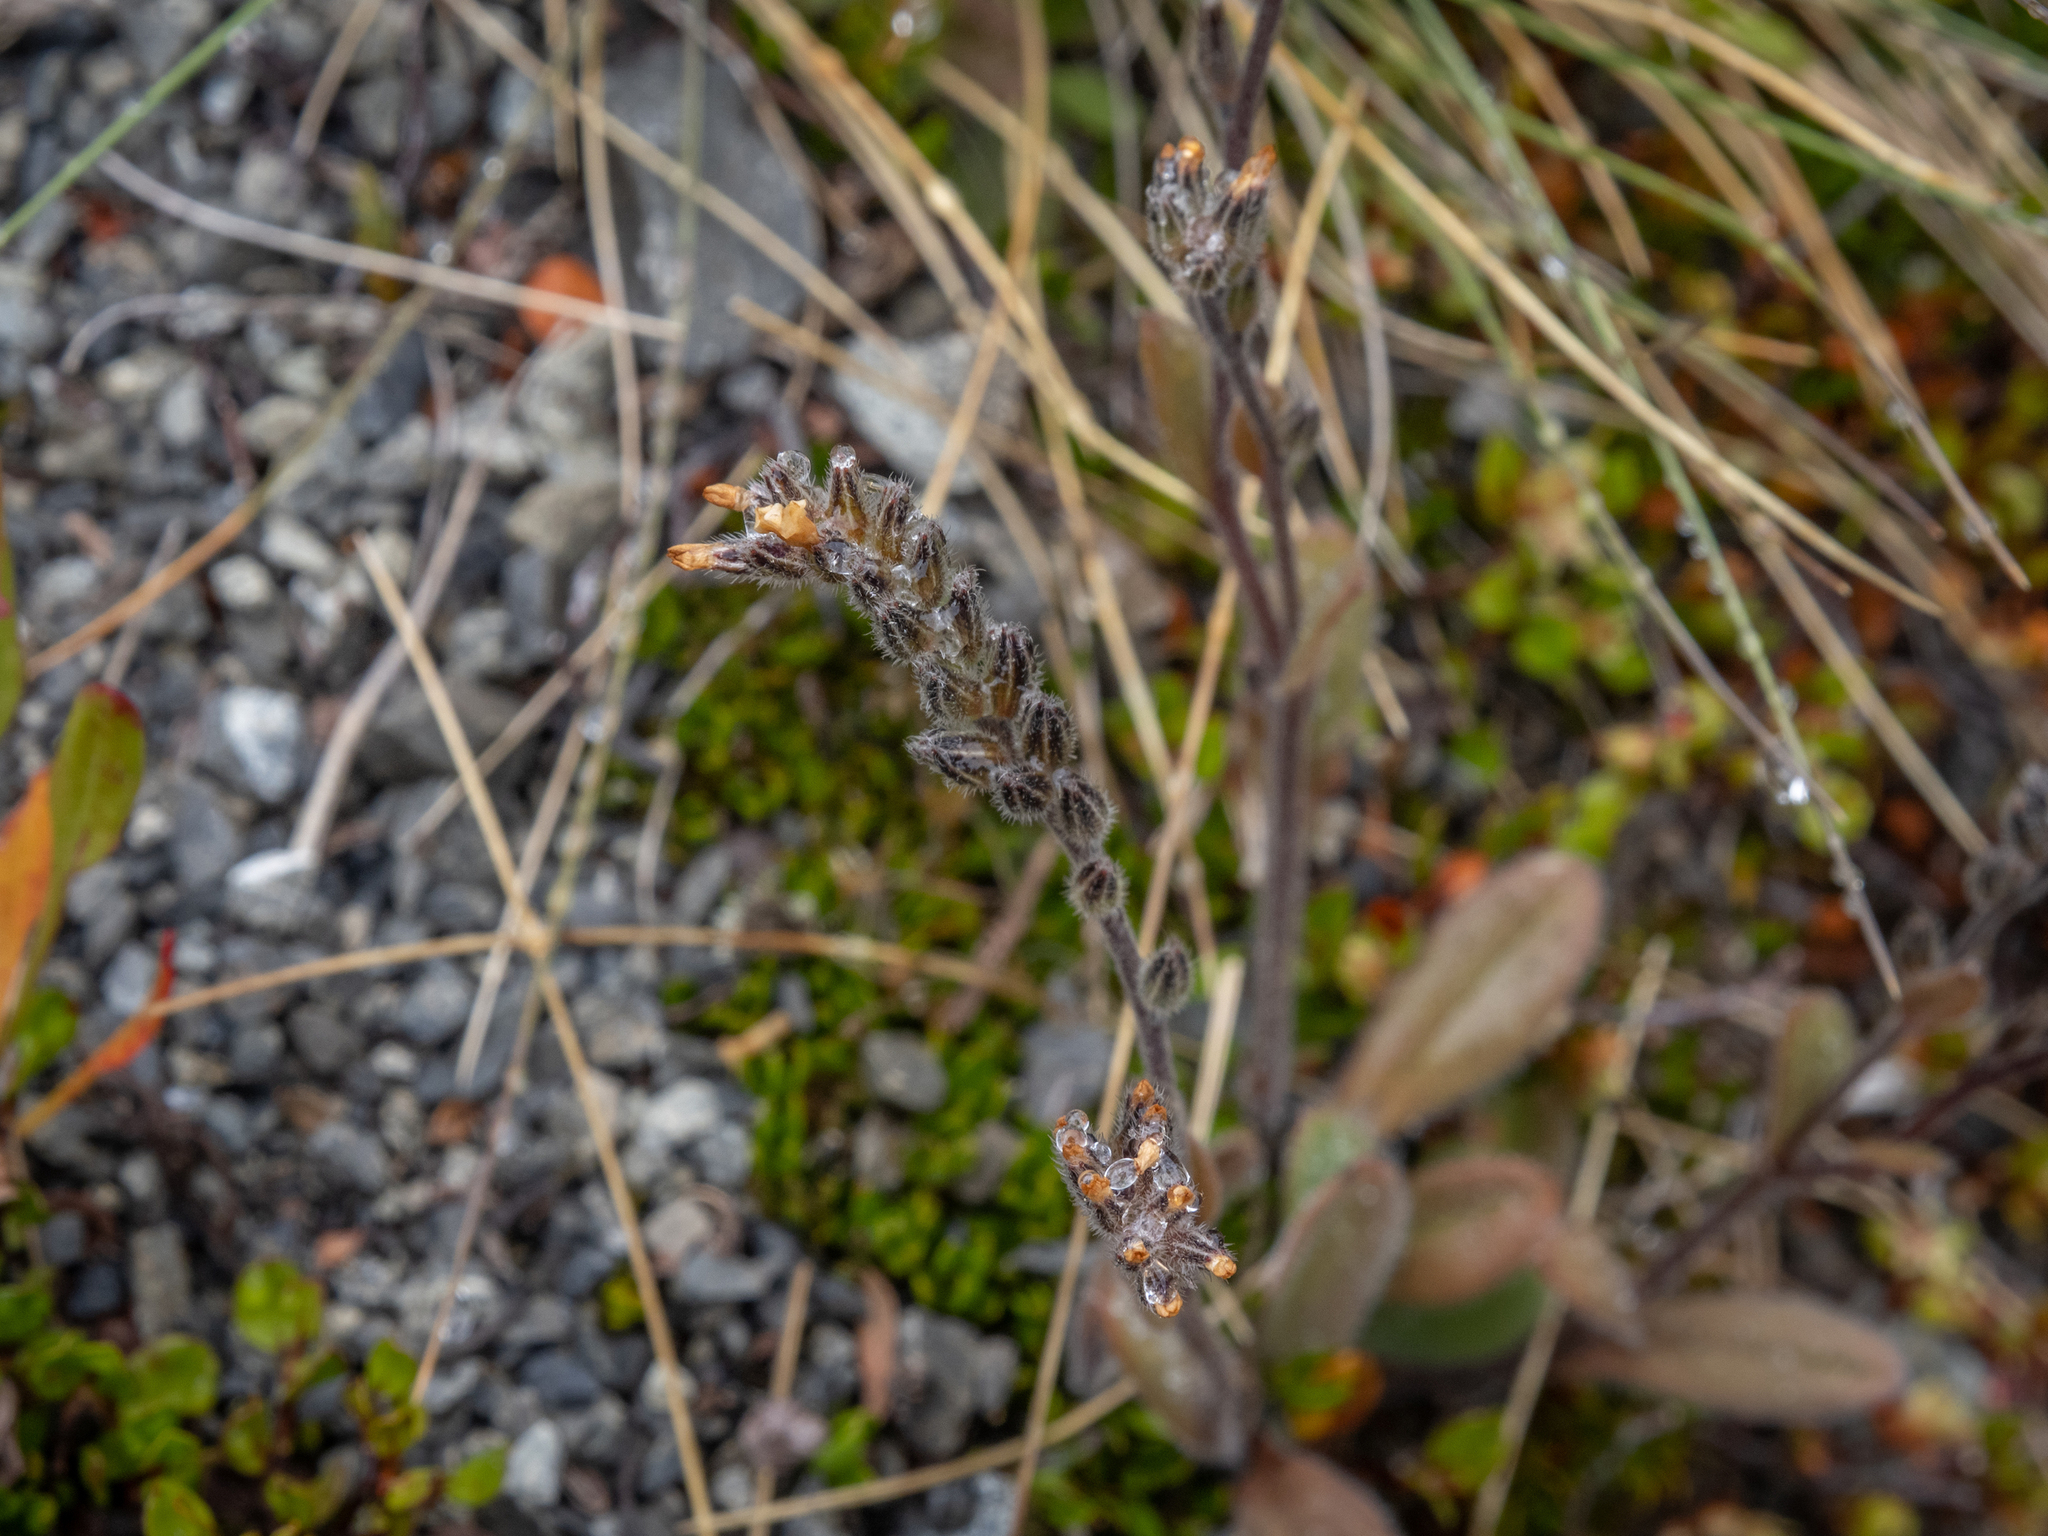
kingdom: Plantae
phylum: Tracheophyta
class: Magnoliopsida
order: Boraginales
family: Boraginaceae
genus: Myosotis
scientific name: Myosotis australis
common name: Australian forget-me-not
